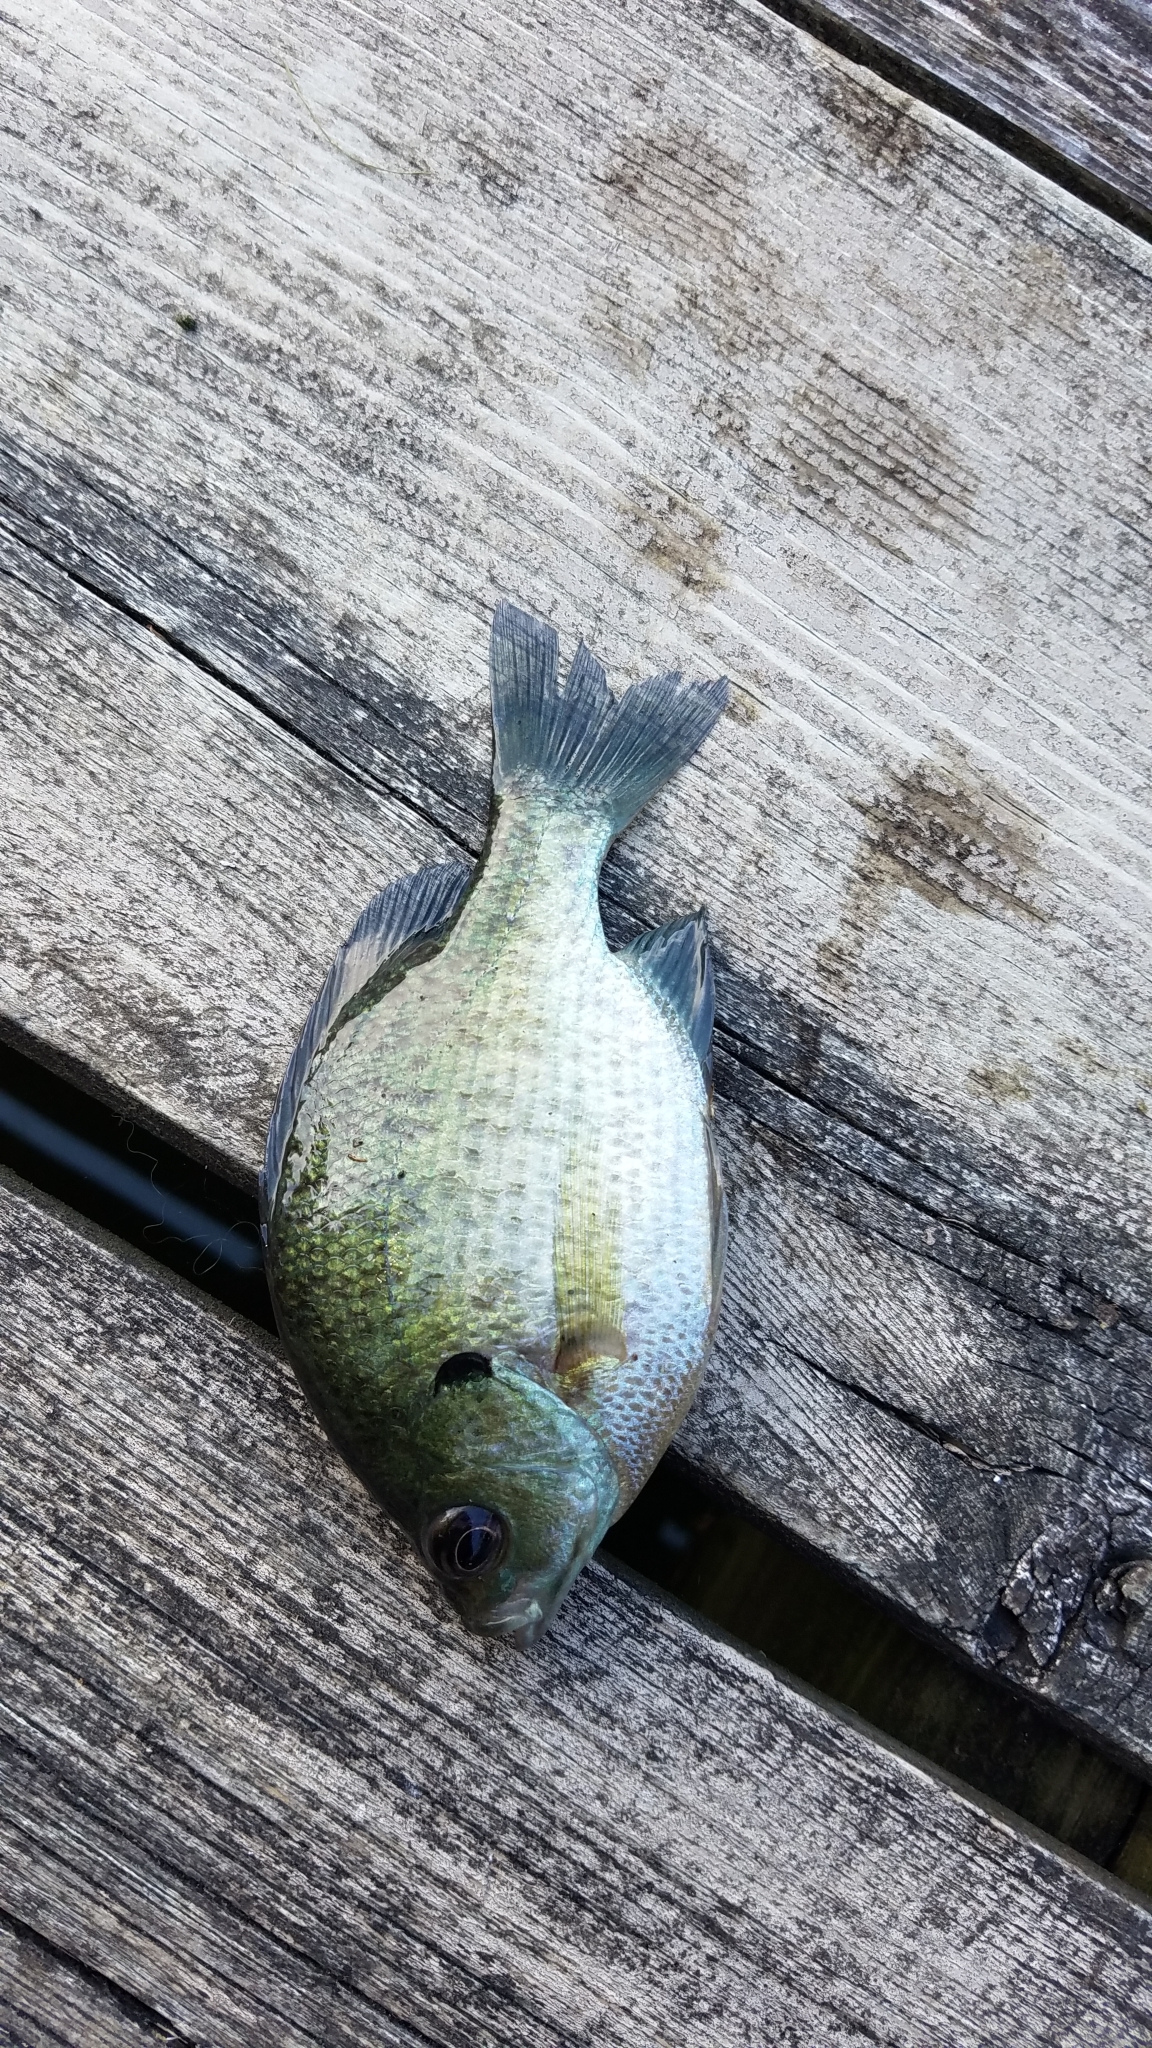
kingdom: Animalia
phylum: Chordata
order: Perciformes
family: Centrarchidae
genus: Lepomis
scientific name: Lepomis macrochirus
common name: Bluegill
